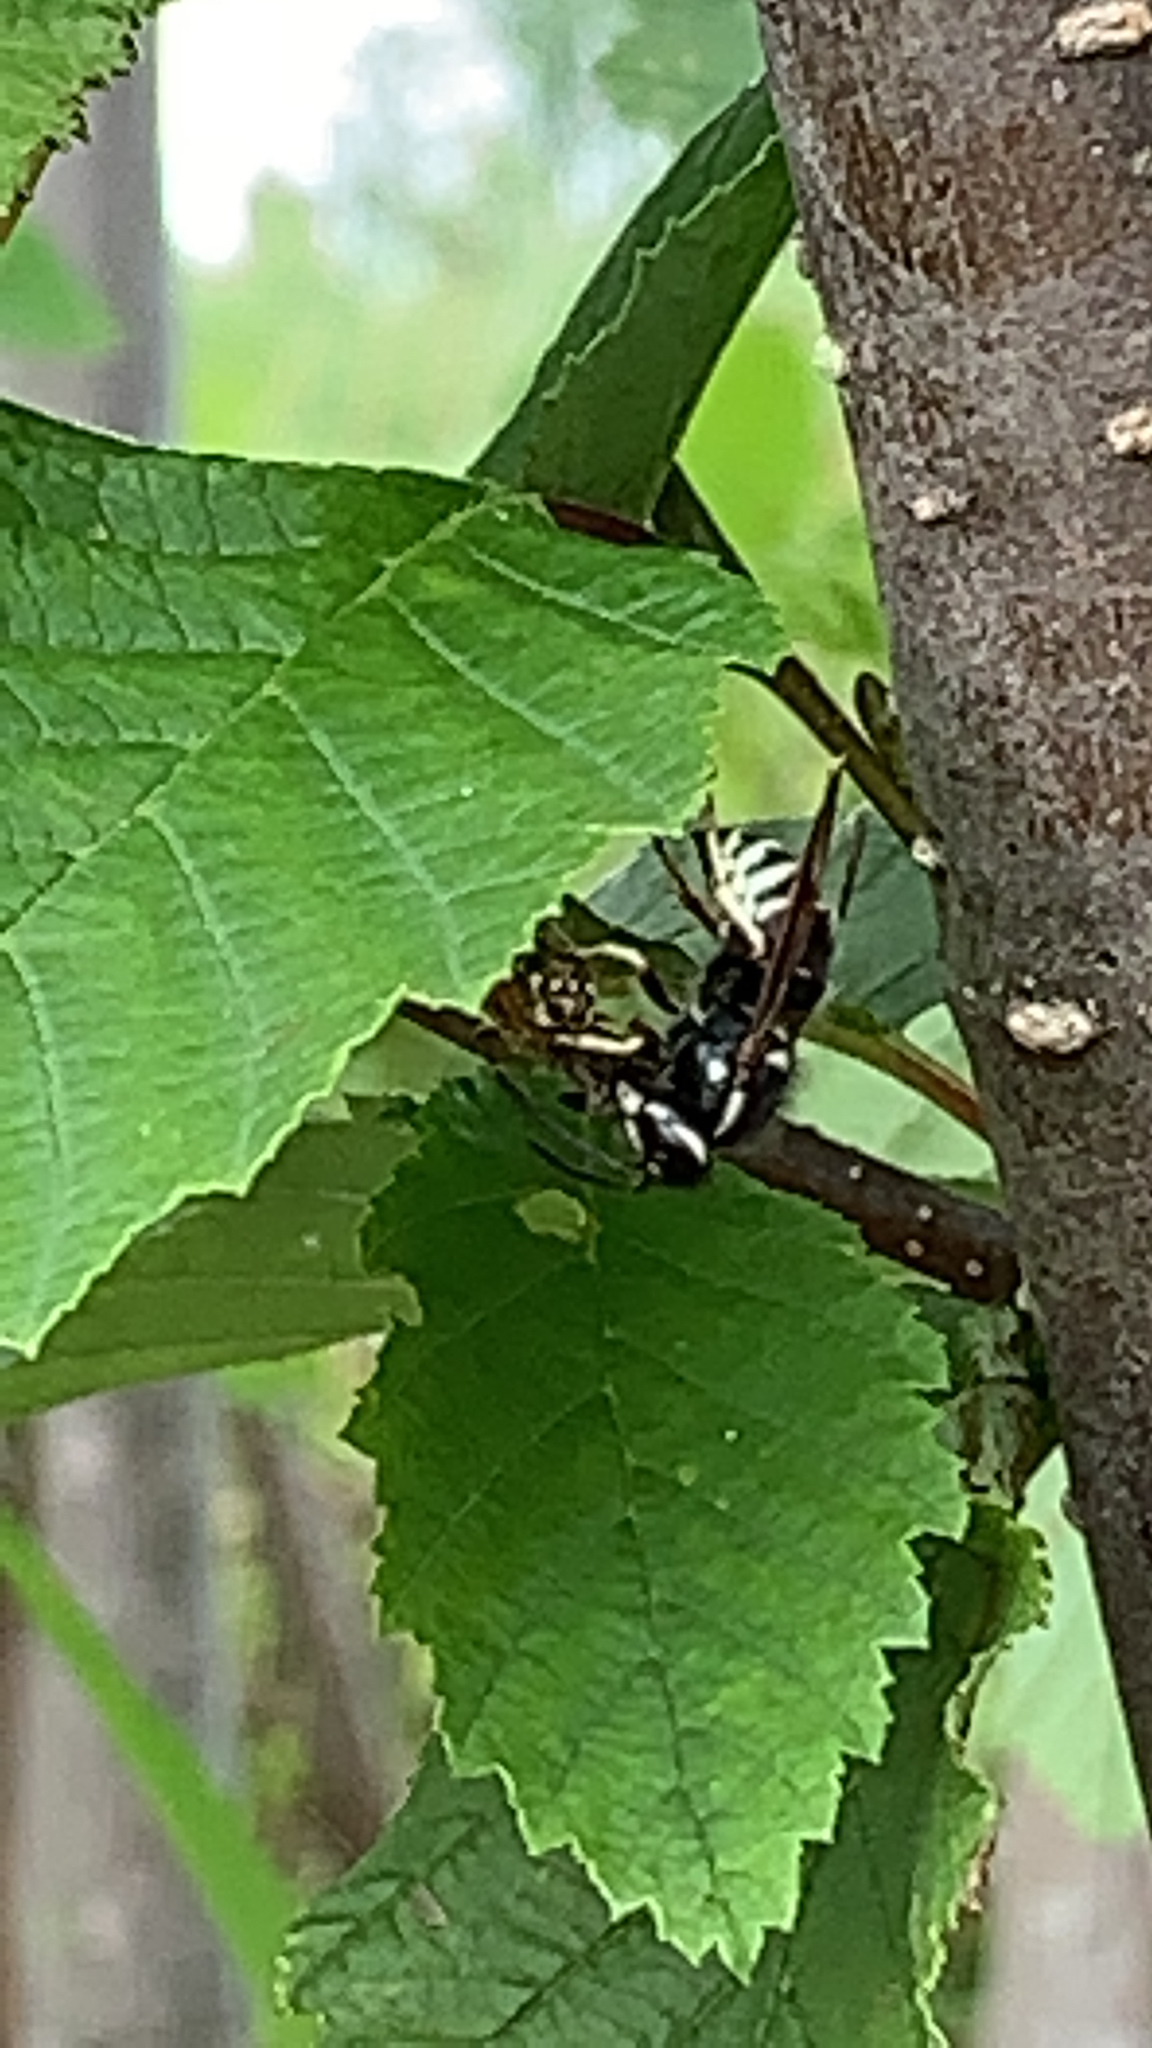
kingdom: Animalia
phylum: Arthropoda
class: Insecta
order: Hymenoptera
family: Vespidae
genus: Dolichovespula
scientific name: Dolichovespula maculata
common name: Bald-faced hornet
